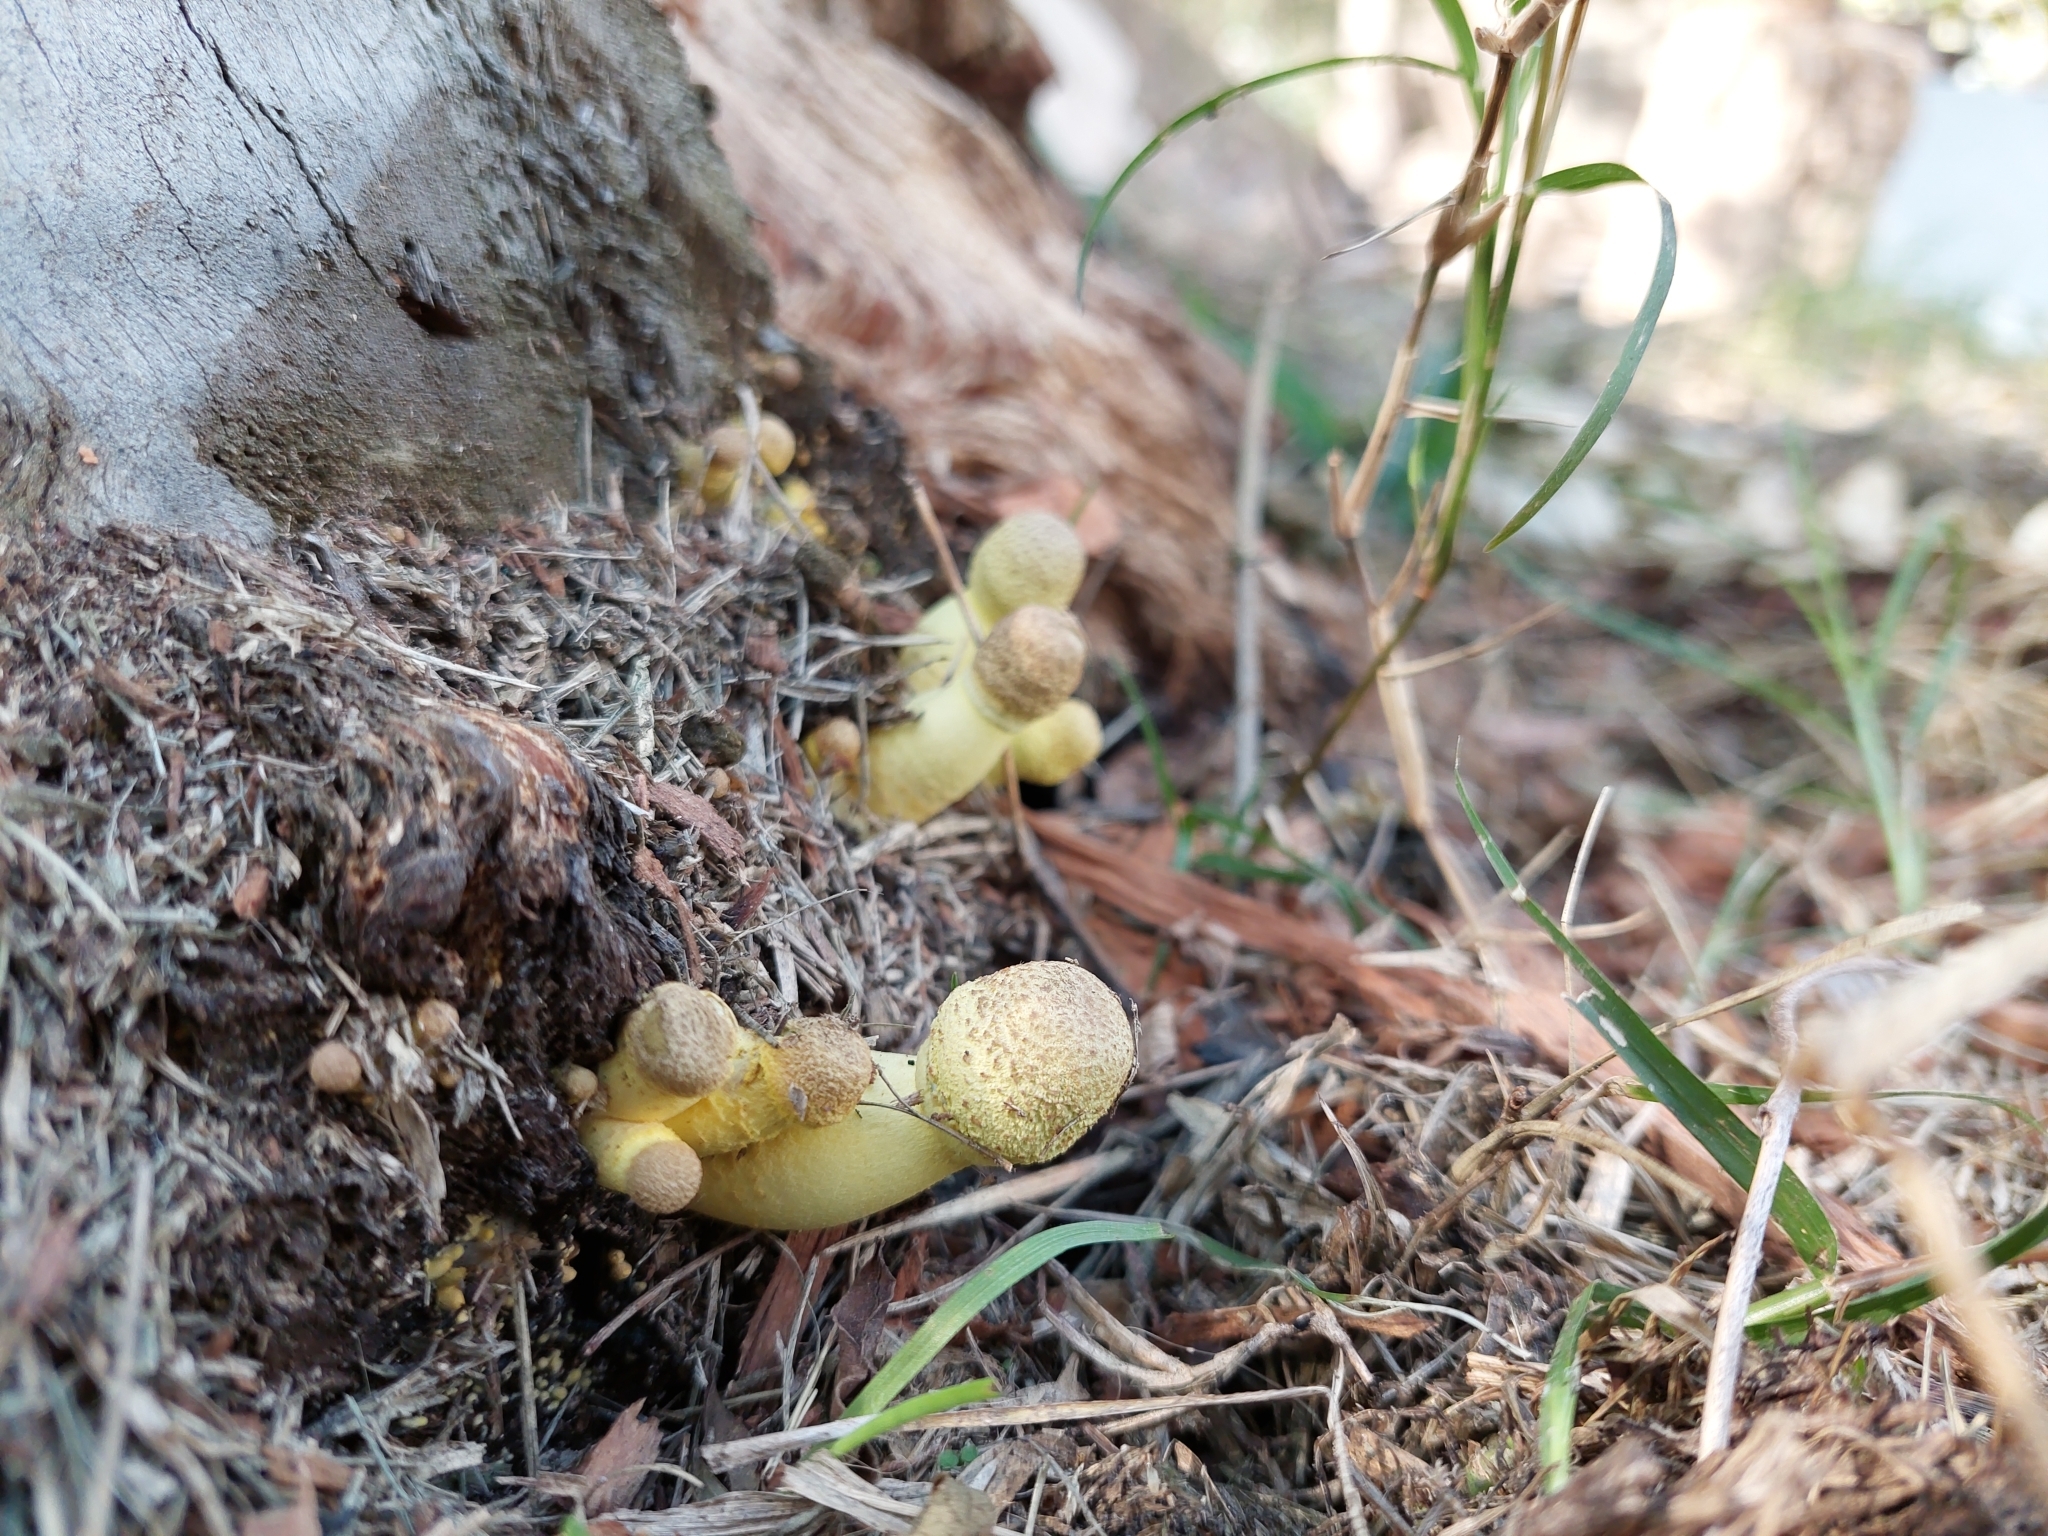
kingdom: Fungi
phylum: Basidiomycota
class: Agaricomycetes
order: Agaricales
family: Agaricaceae
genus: Leucocoprinus
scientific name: Leucocoprinus birnbaumii
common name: Plantpot dapperling
